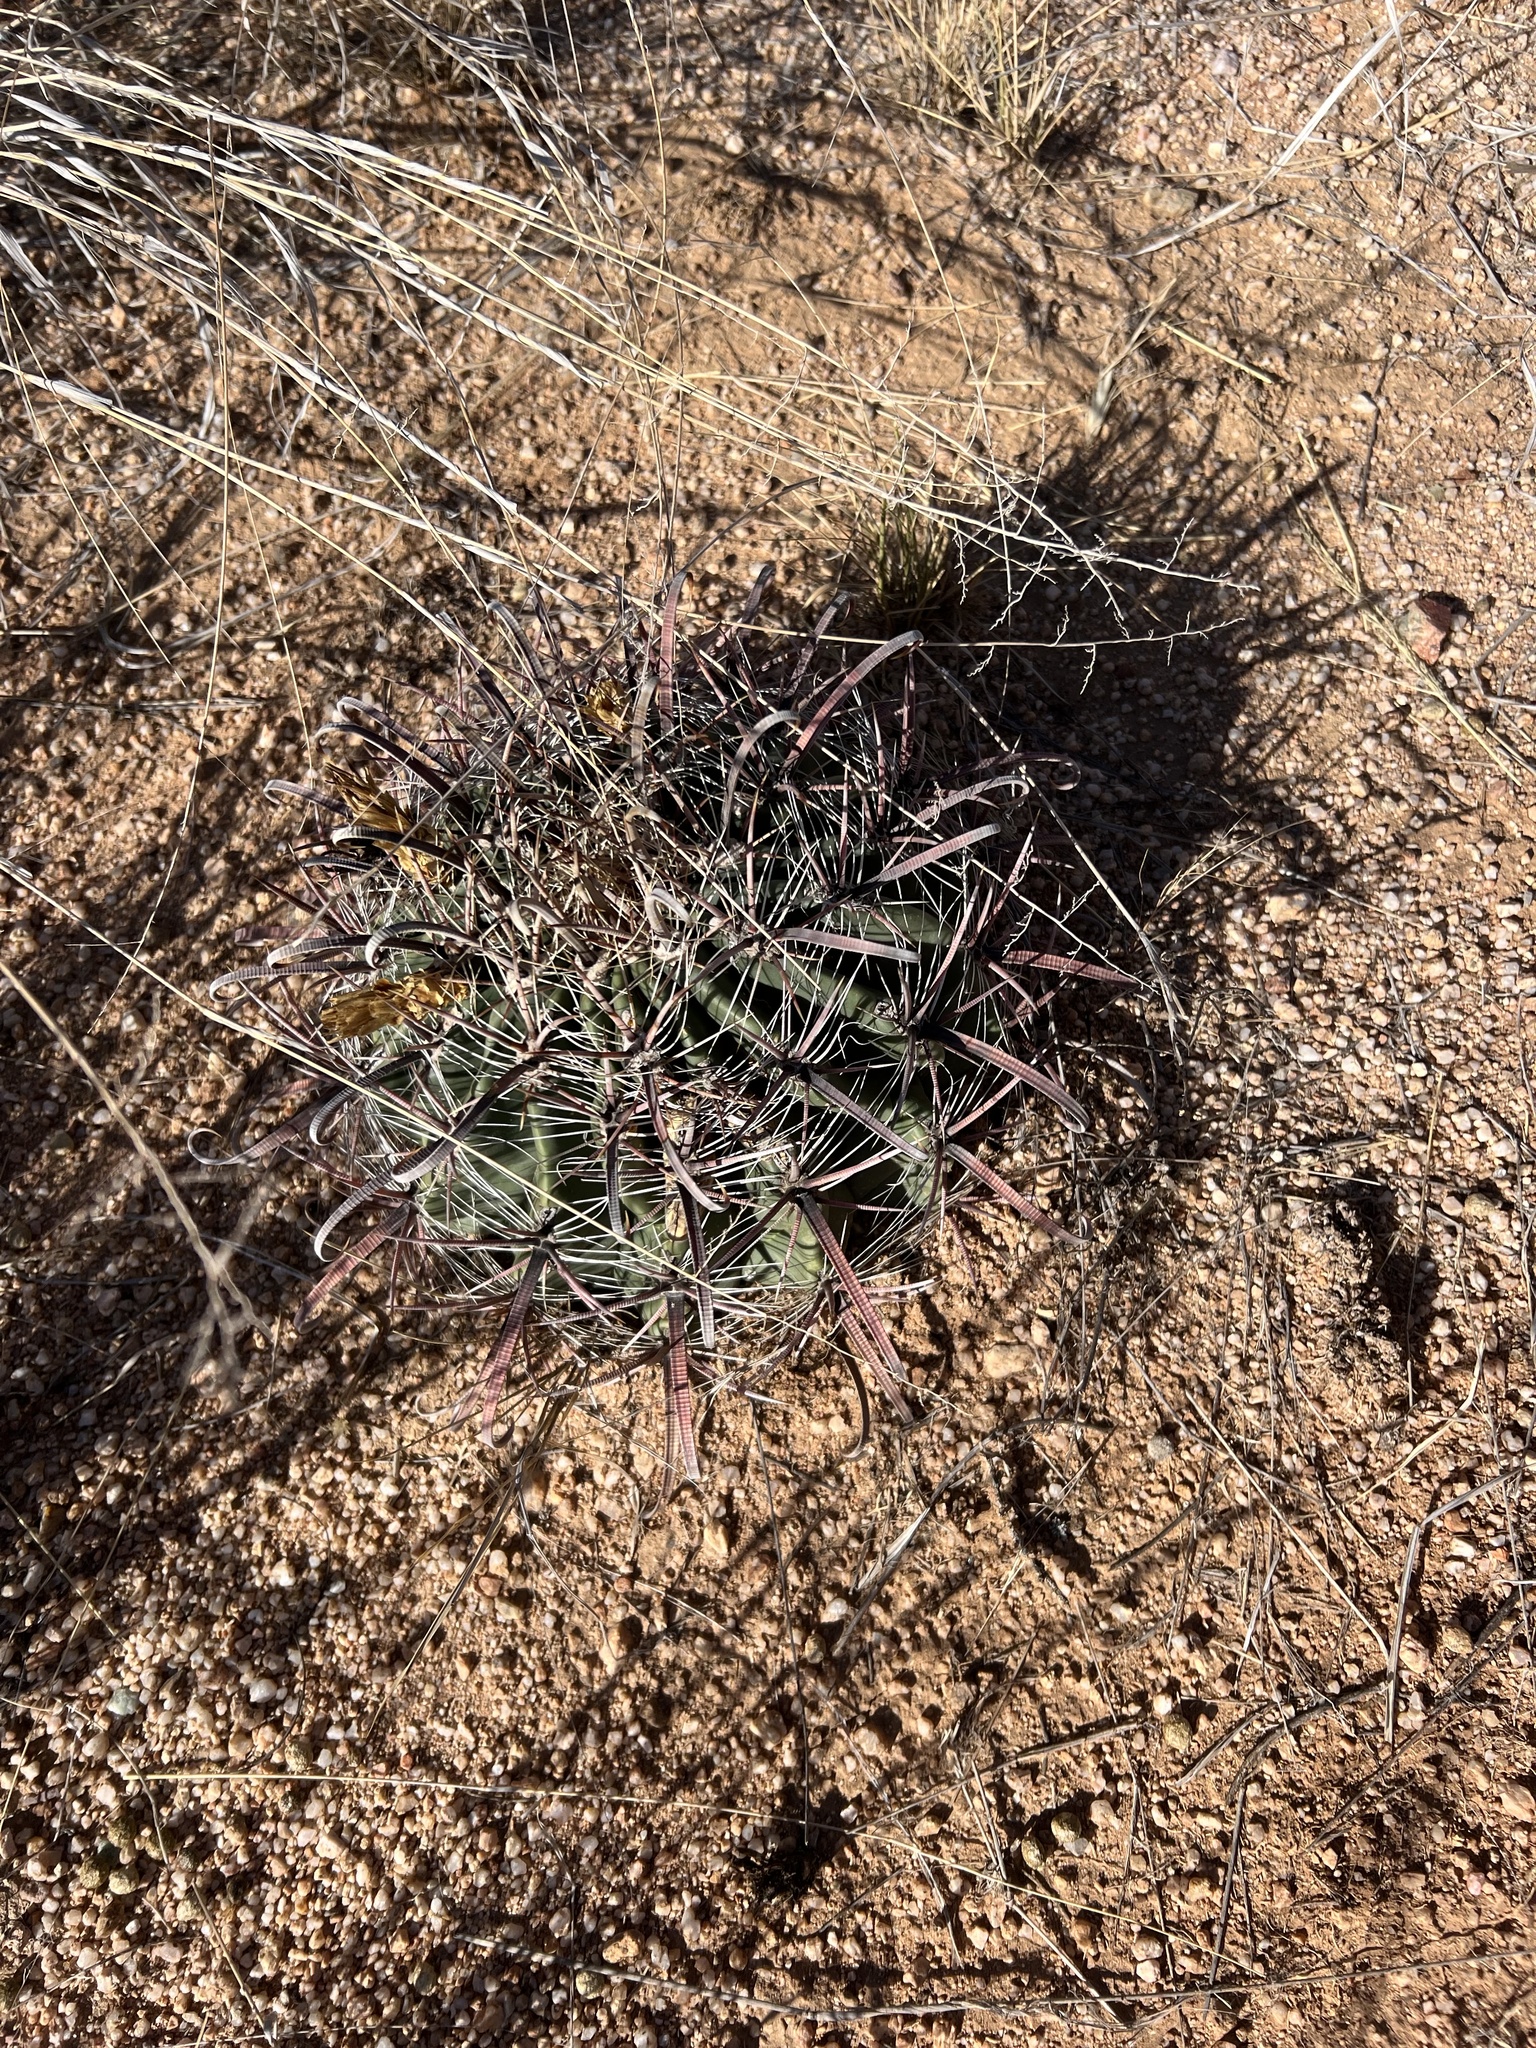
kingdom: Plantae
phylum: Tracheophyta
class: Magnoliopsida
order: Caryophyllales
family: Cactaceae
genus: Ferocactus
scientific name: Ferocactus wislizeni
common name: Candy barrel cactus
